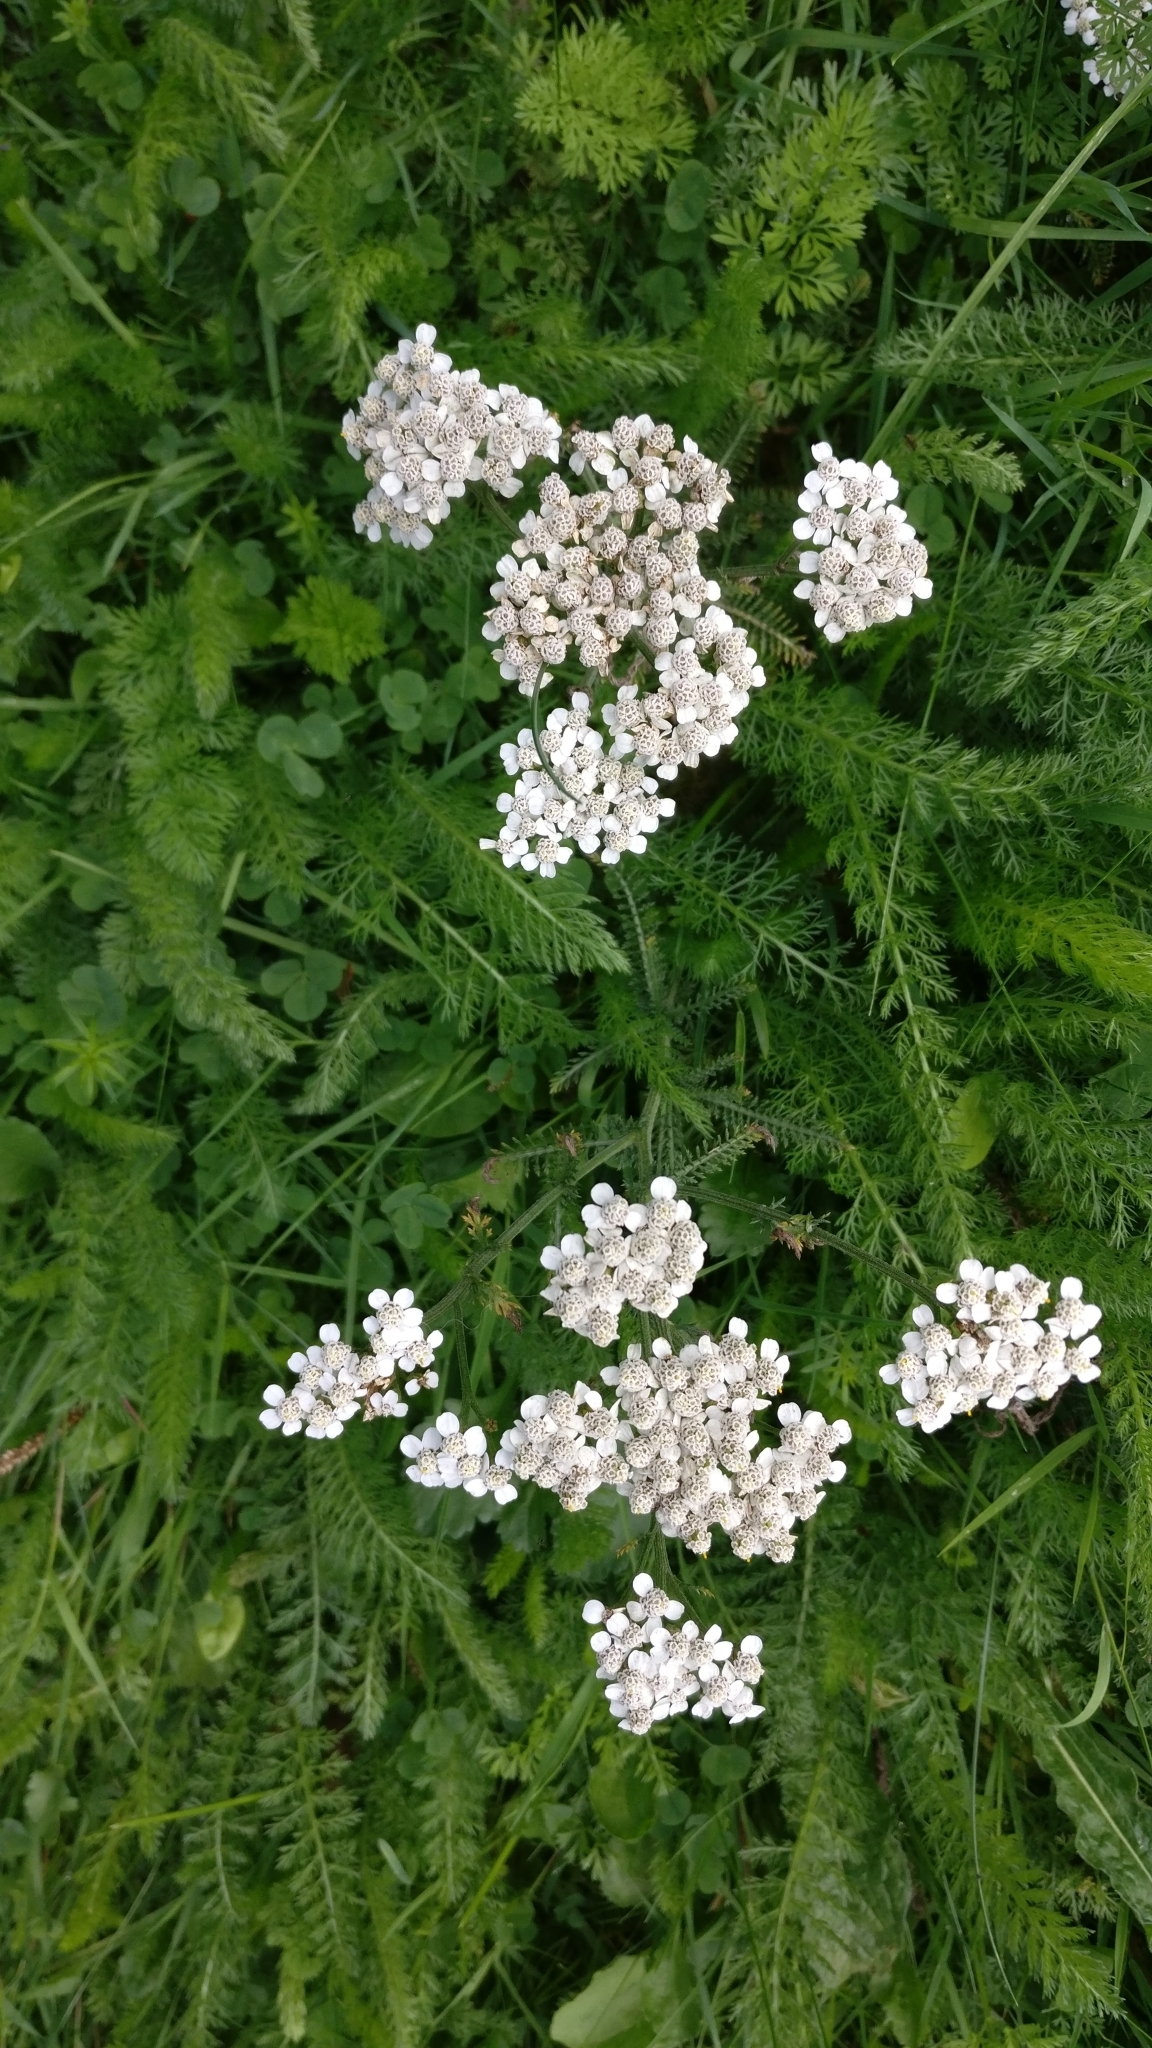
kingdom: Plantae
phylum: Tracheophyta
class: Magnoliopsida
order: Asterales
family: Asteraceae
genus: Achillea
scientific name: Achillea millefolium
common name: Yarrow
